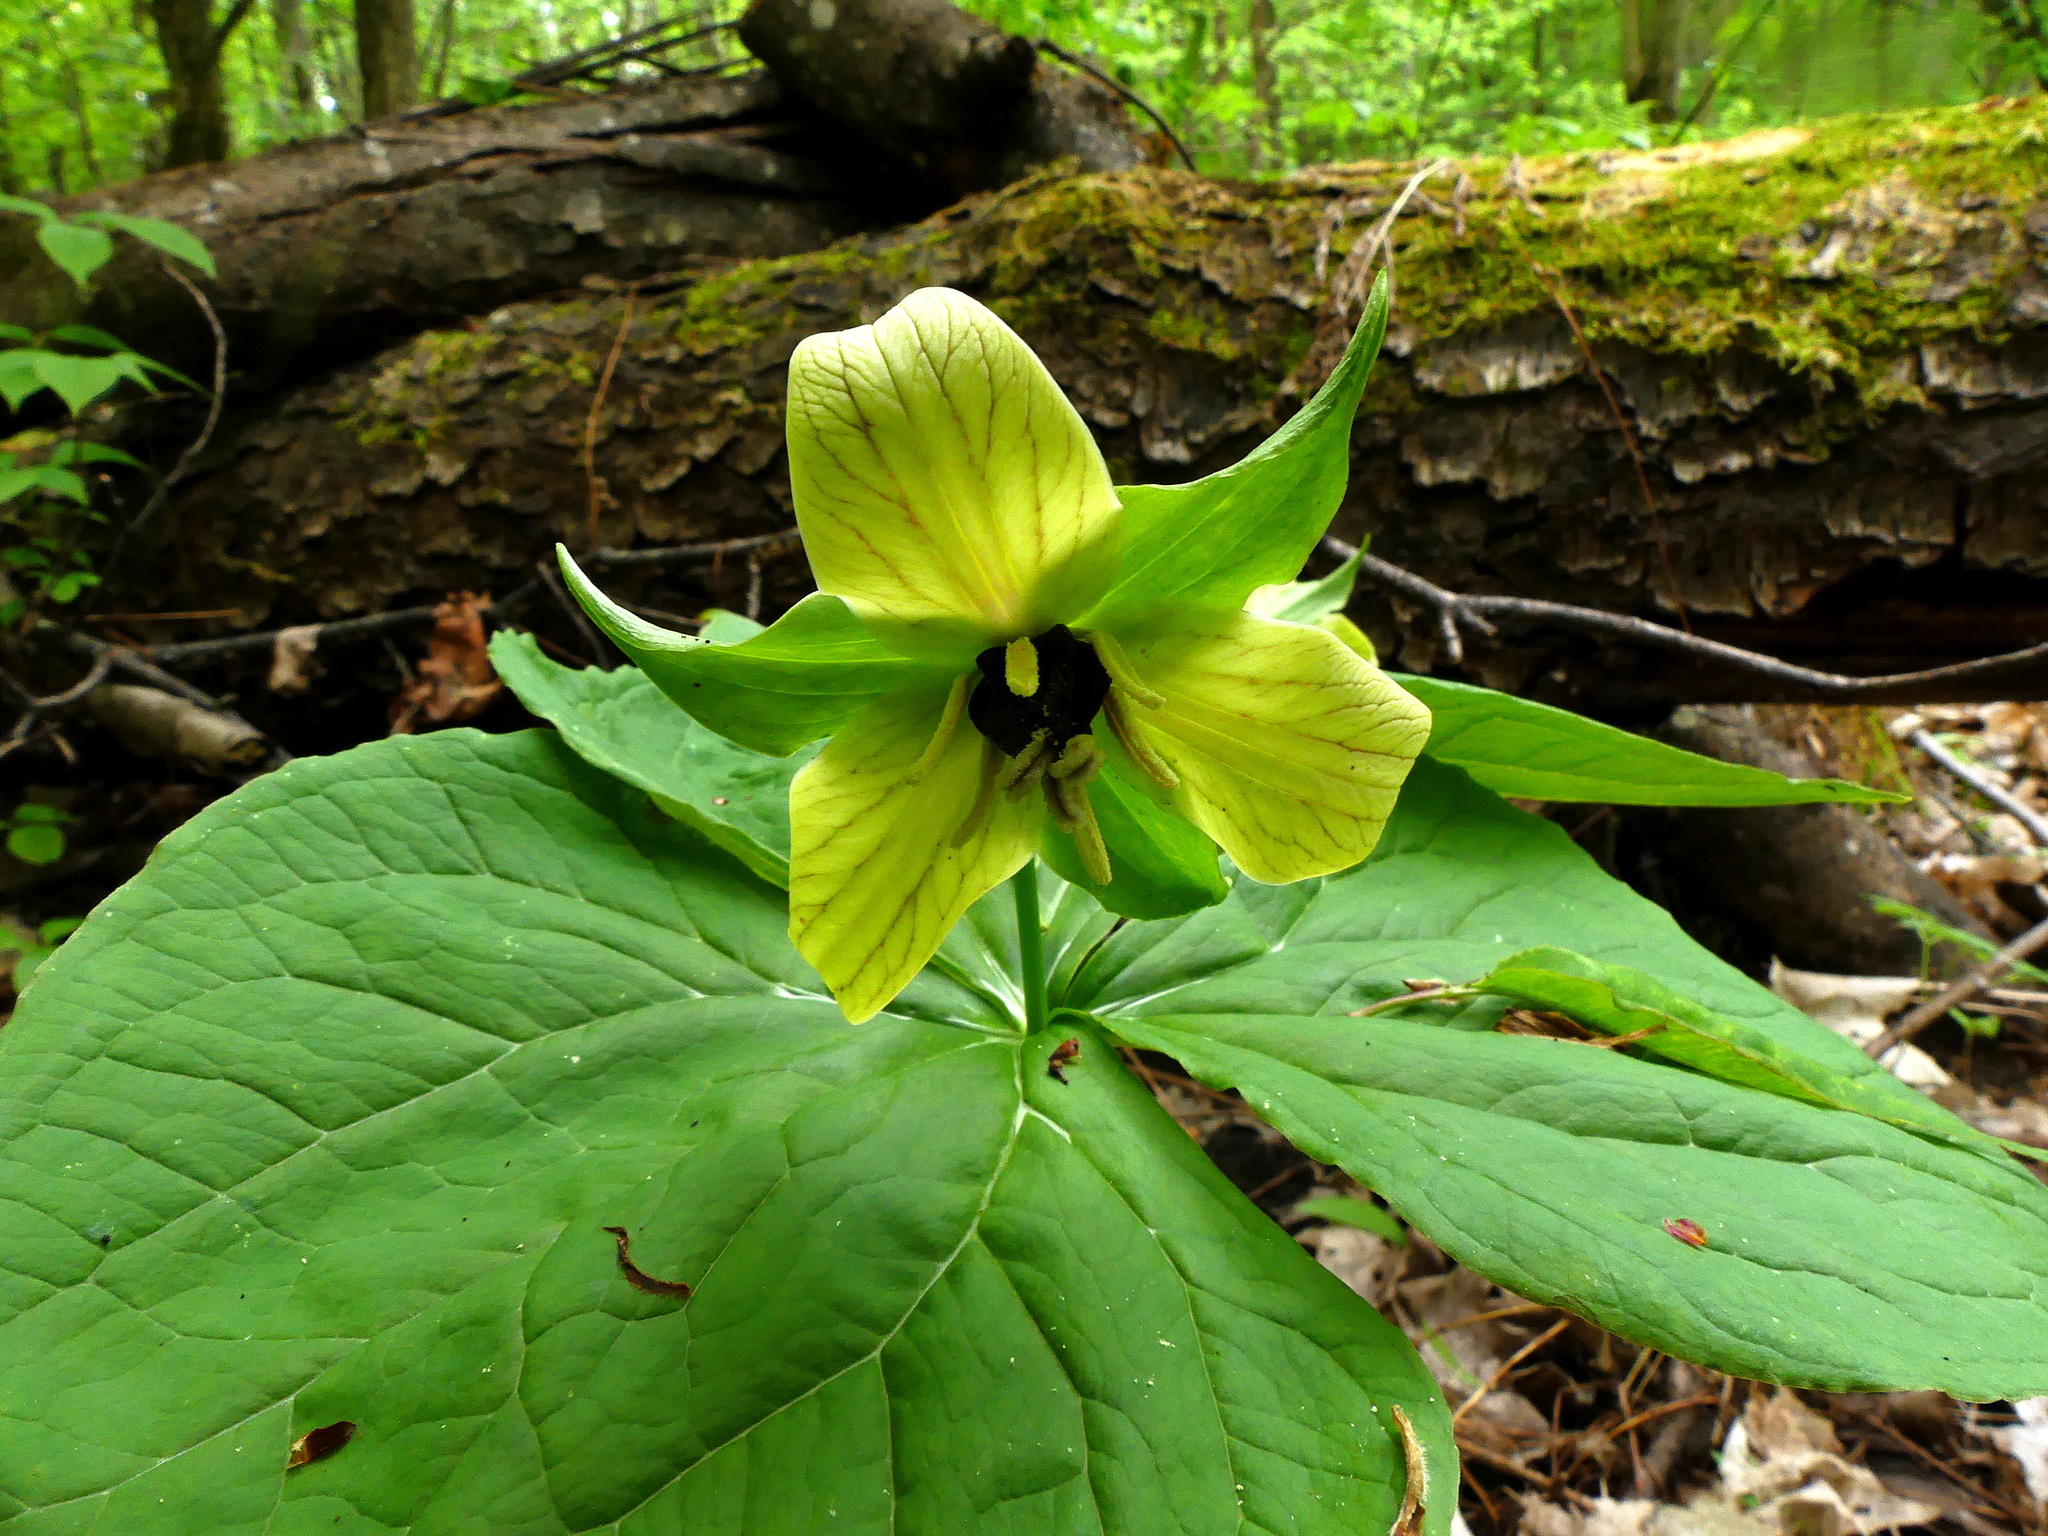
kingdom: Plantae
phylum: Tracheophyta
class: Liliopsida
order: Liliales
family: Melanthiaceae
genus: Trillium
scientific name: Trillium erectum
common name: Purple trillium
